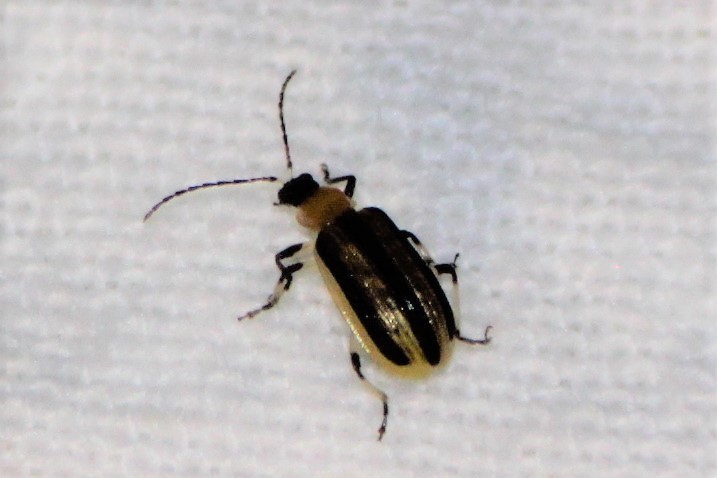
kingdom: Animalia
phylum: Arthropoda
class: Insecta
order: Coleoptera
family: Chrysomelidae
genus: Acalymma
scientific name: Acalymma vittatum
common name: Striped cucumber beetle
